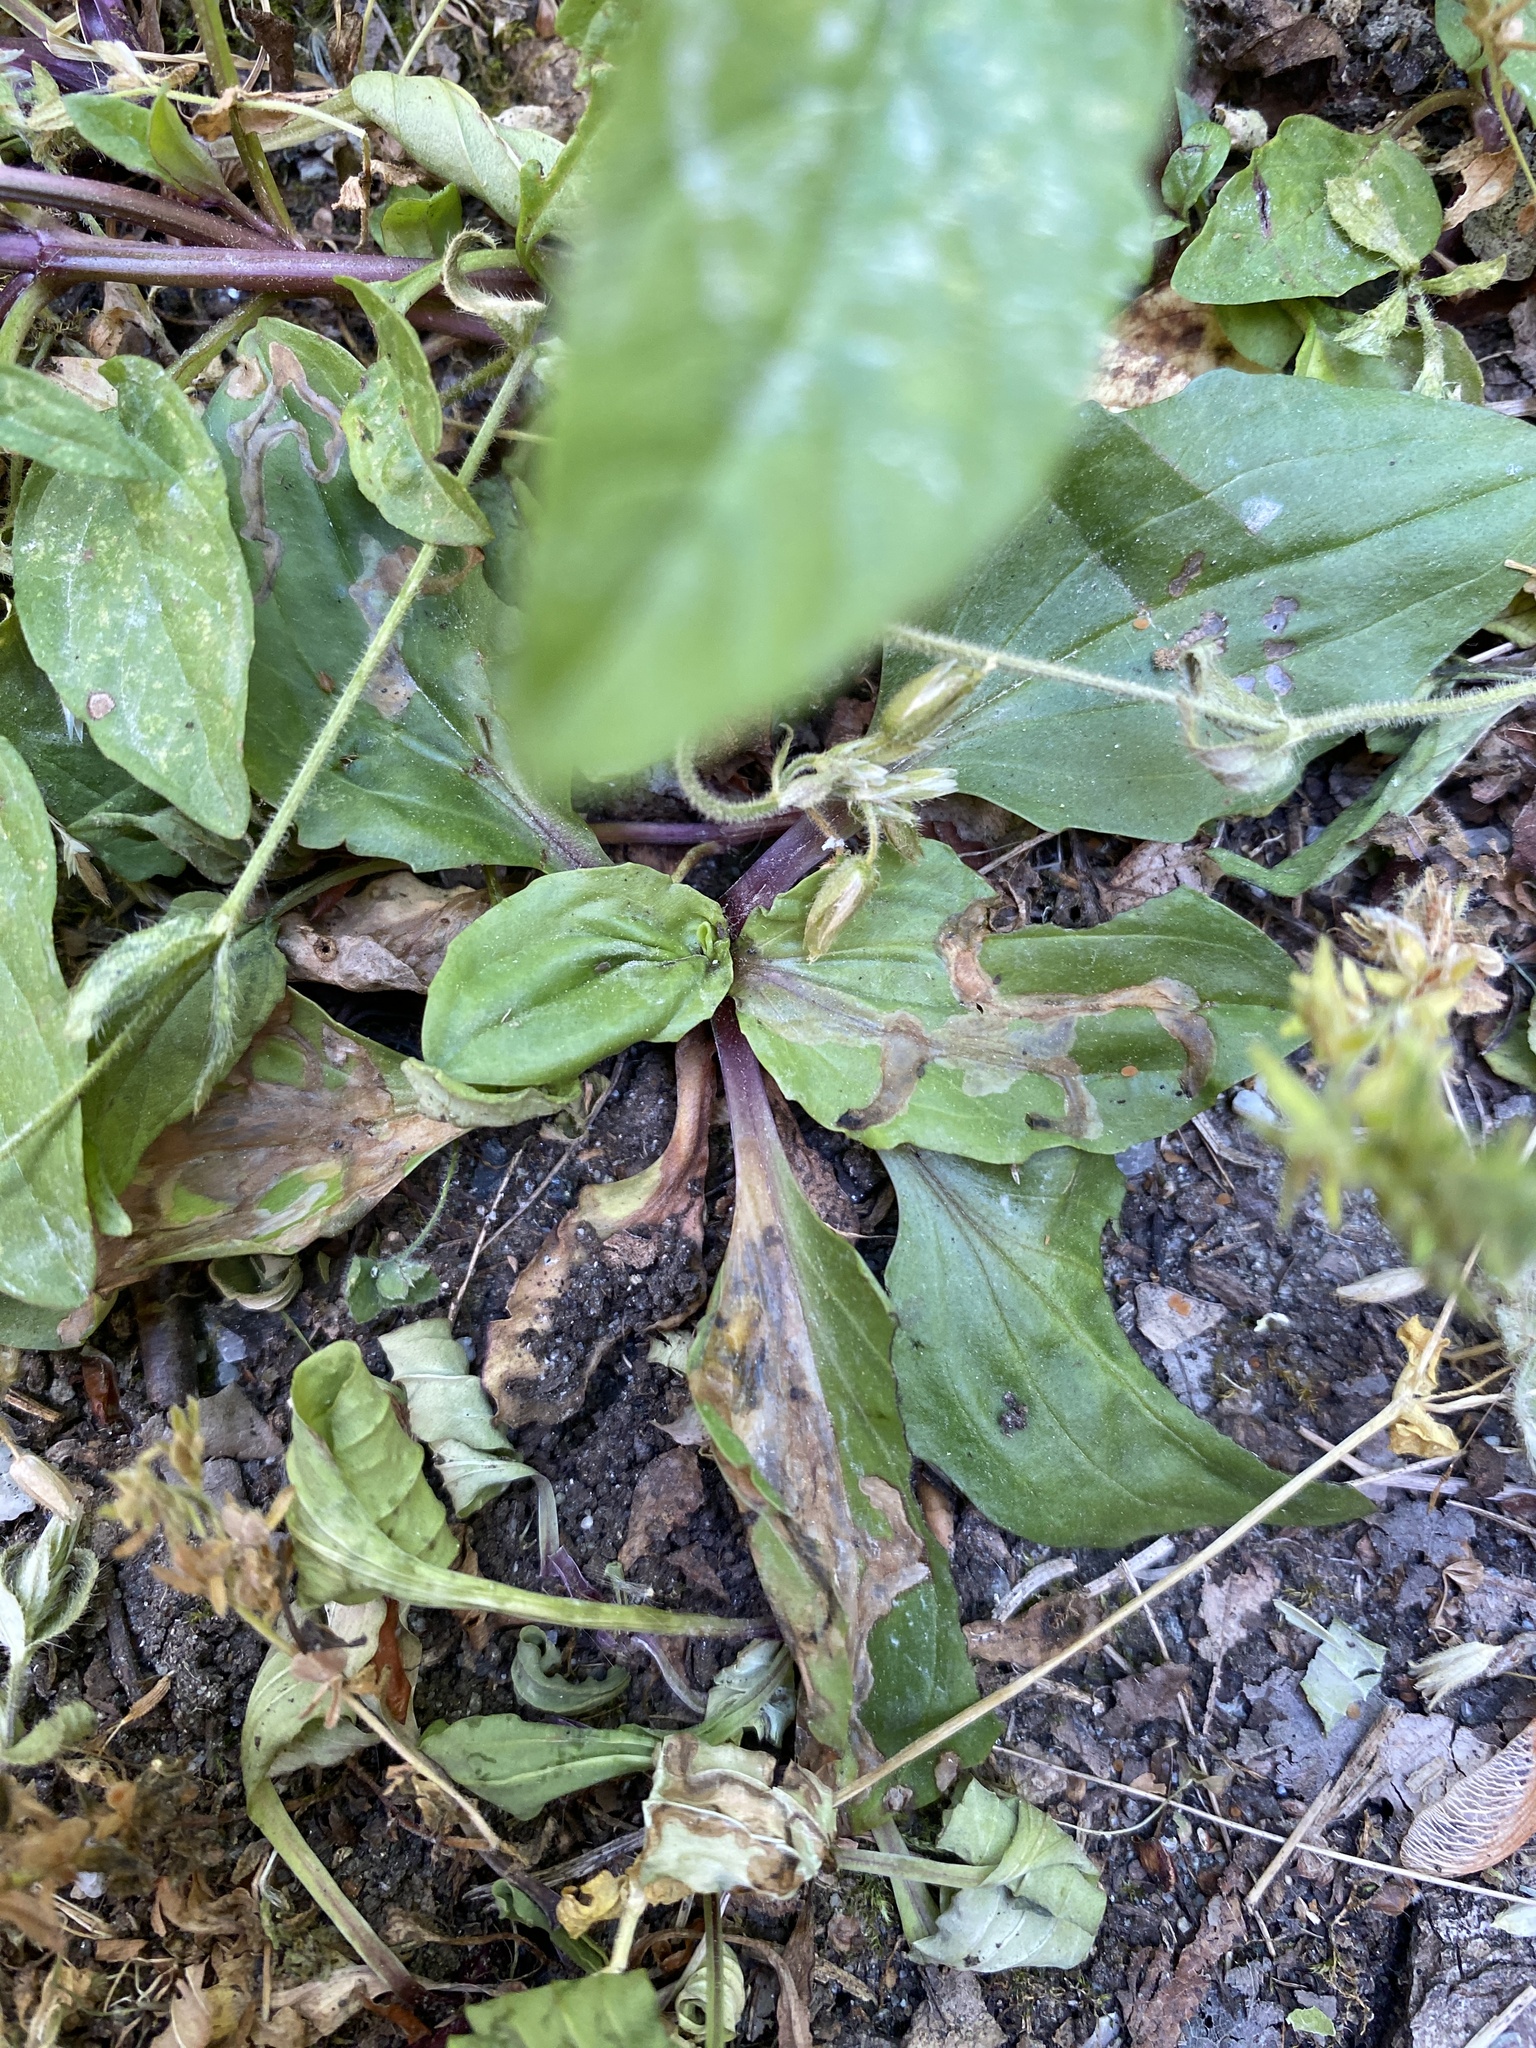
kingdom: Animalia
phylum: Arthropoda
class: Insecta
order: Coleoptera
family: Chrysomelidae
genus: Dibolia
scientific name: Dibolia borealis
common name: Northern plantain flea beetle
